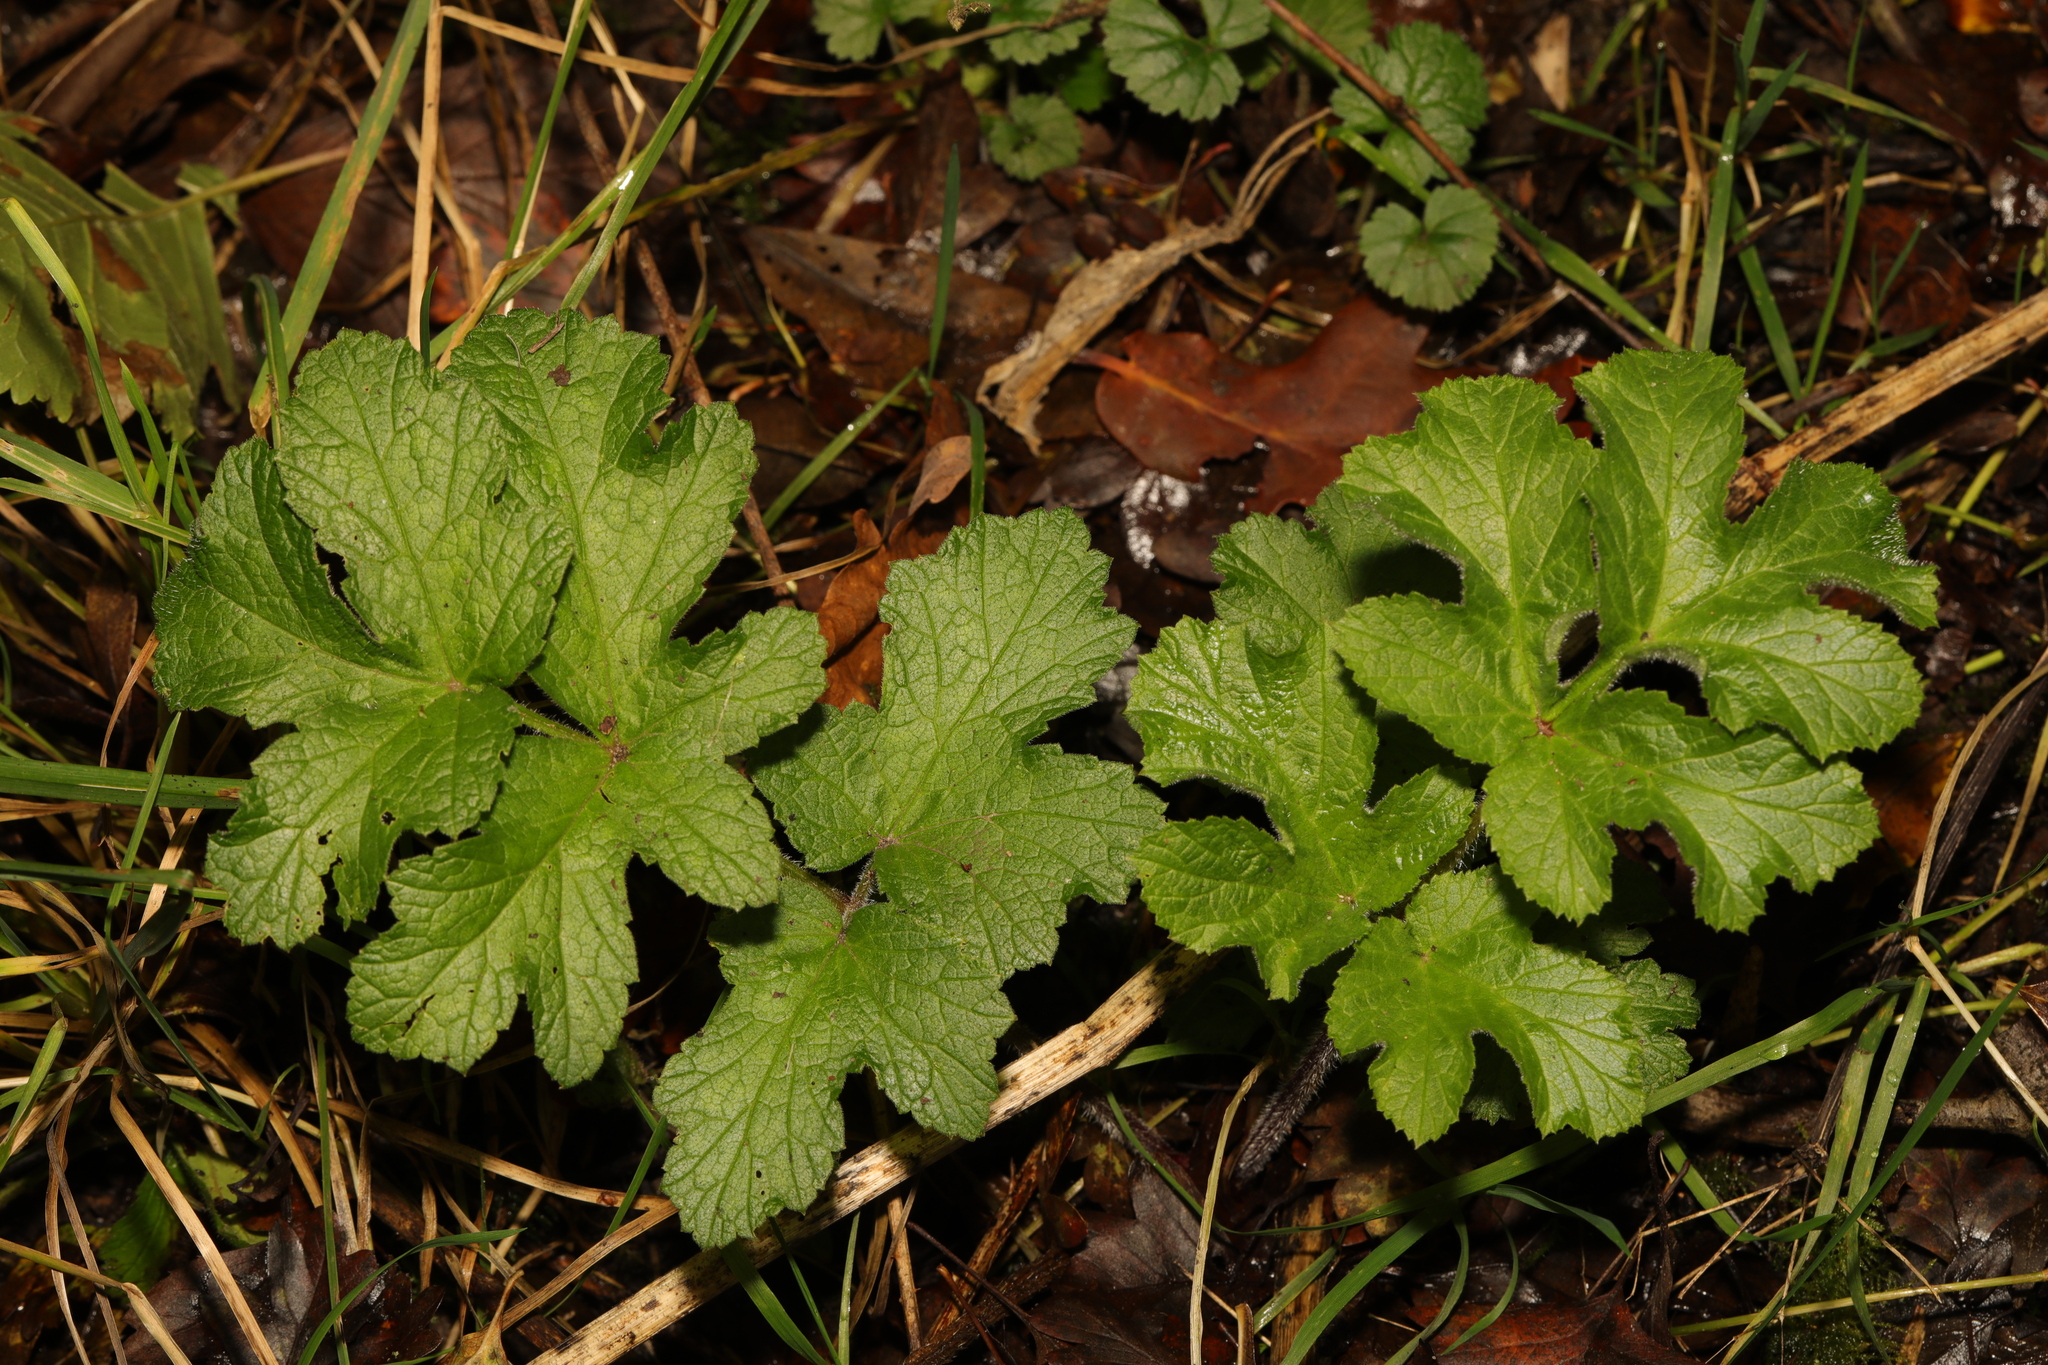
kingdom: Plantae
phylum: Tracheophyta
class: Magnoliopsida
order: Apiales
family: Apiaceae
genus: Heracleum
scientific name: Heracleum sphondylium
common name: Hogweed
